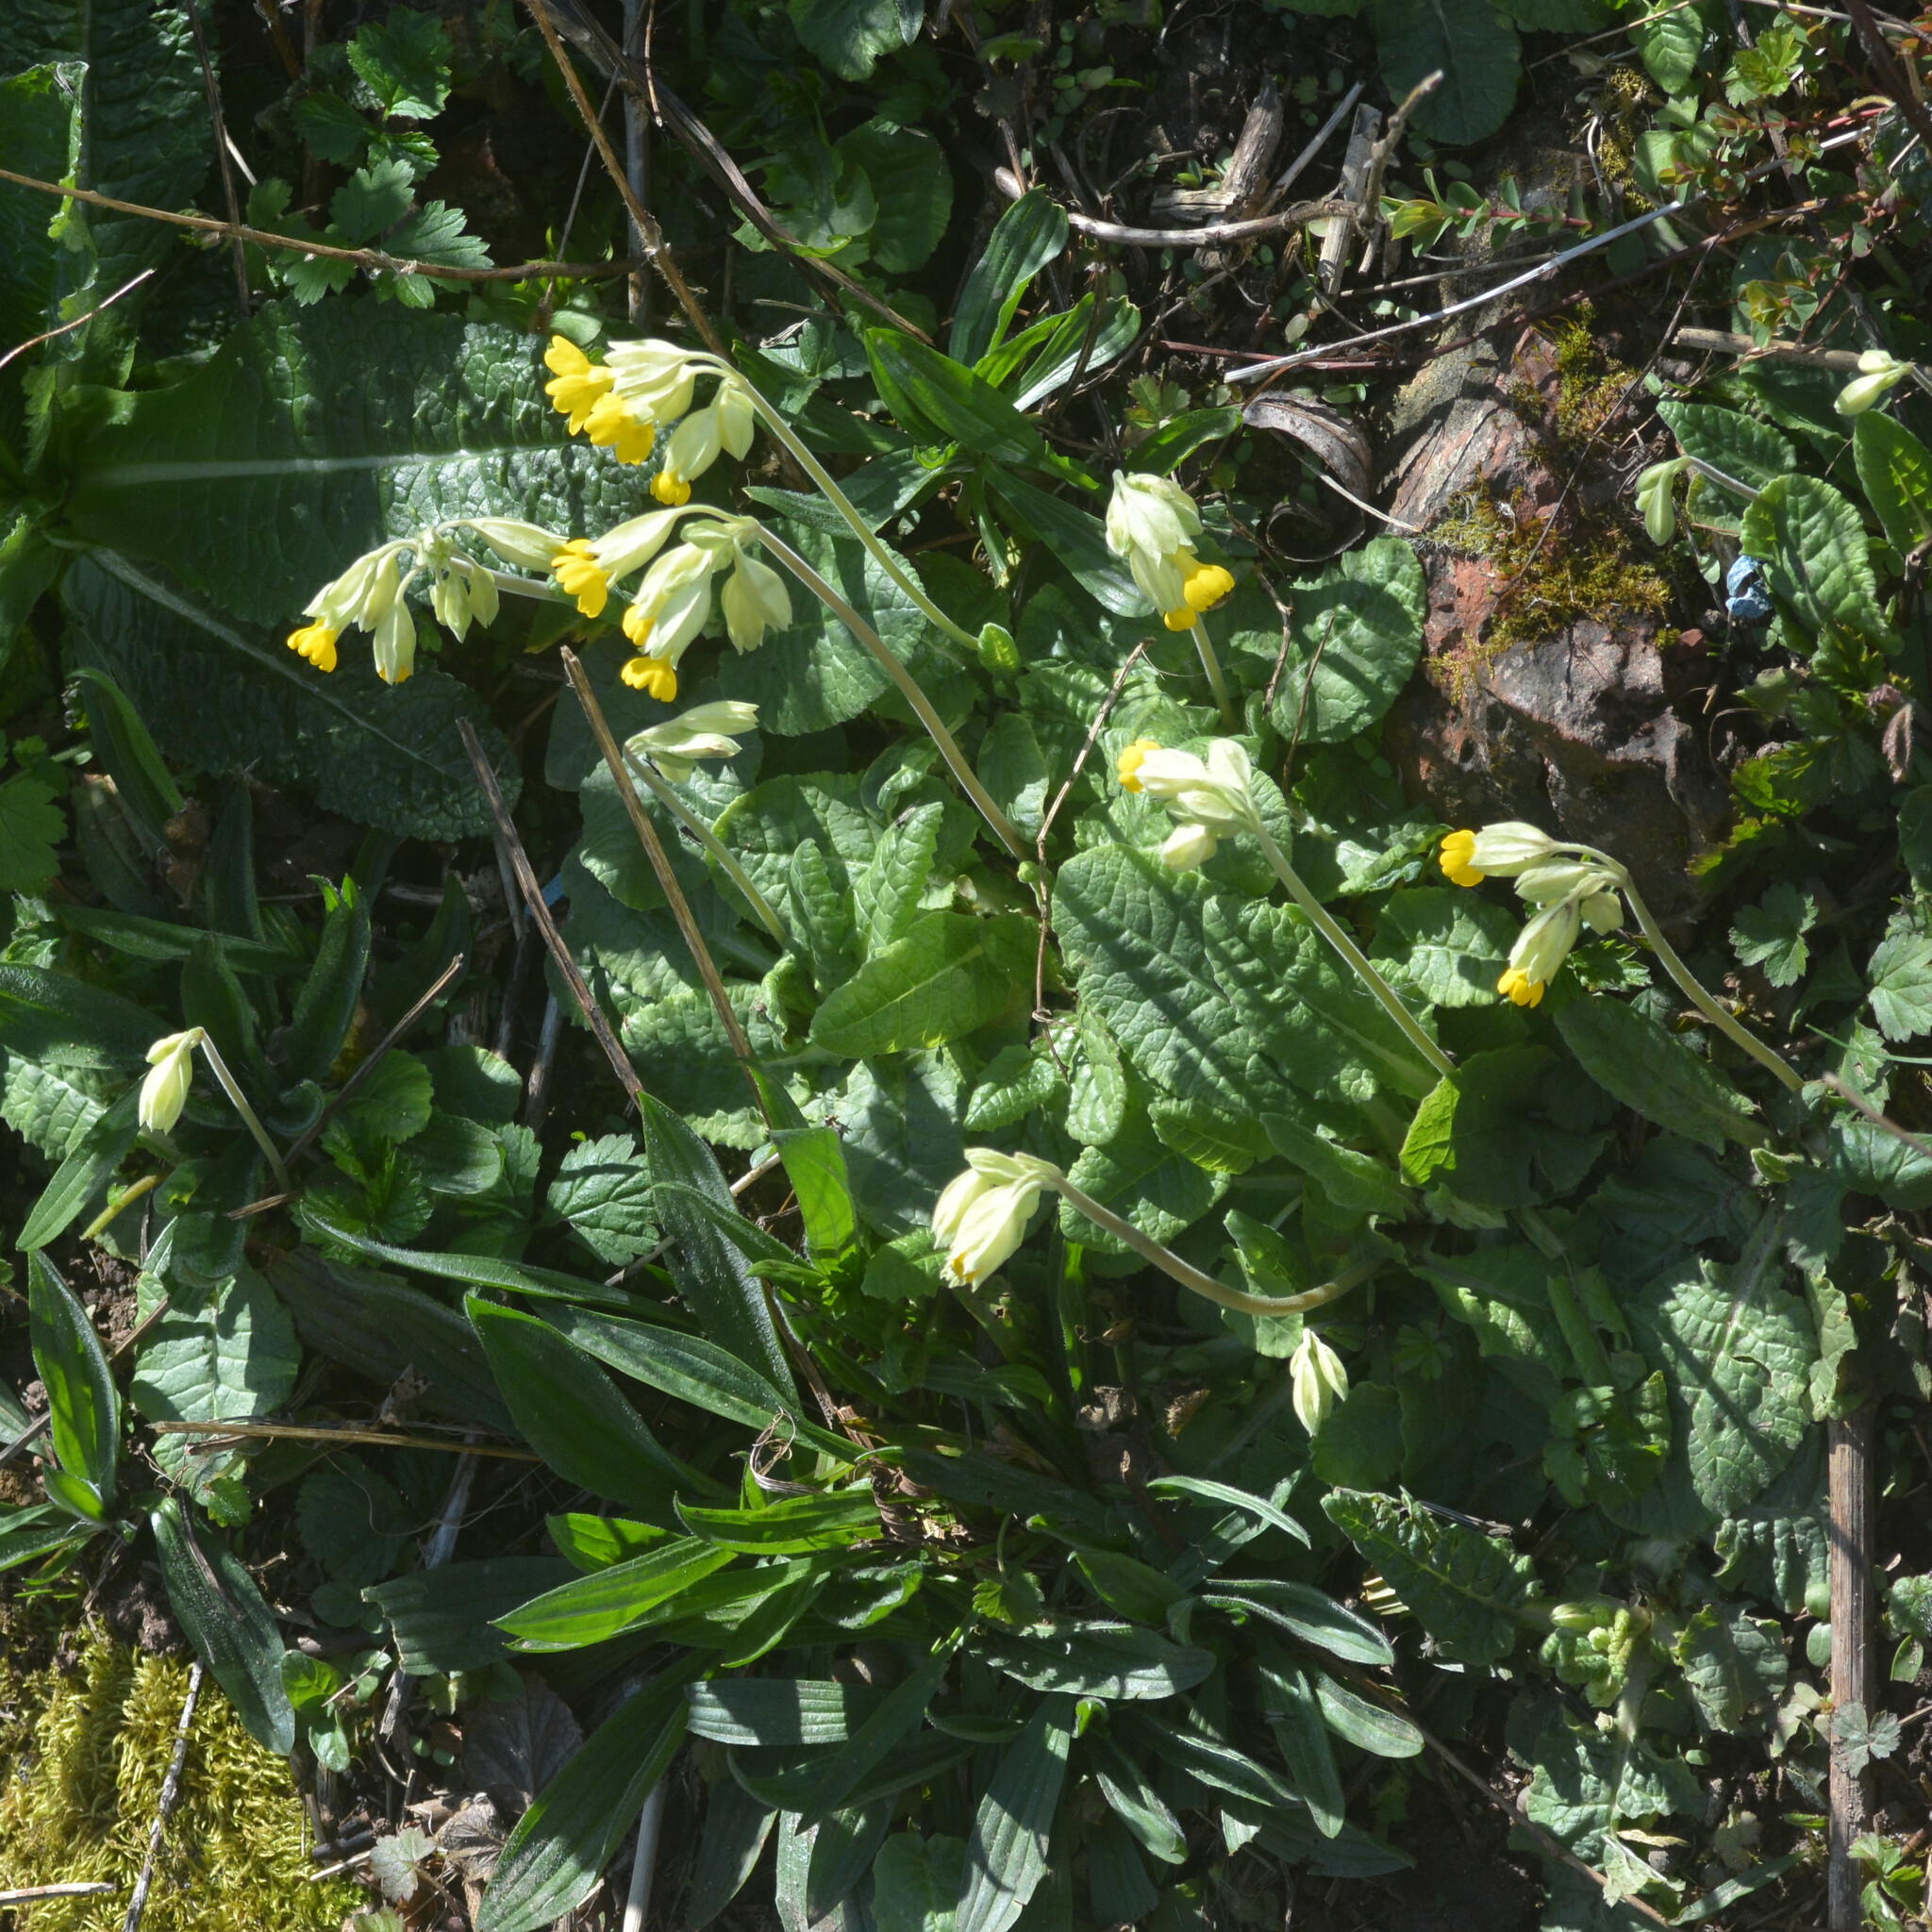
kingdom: Plantae
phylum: Tracheophyta
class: Magnoliopsida
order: Ericales
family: Primulaceae
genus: Primula
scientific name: Primula veris
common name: Cowslip
